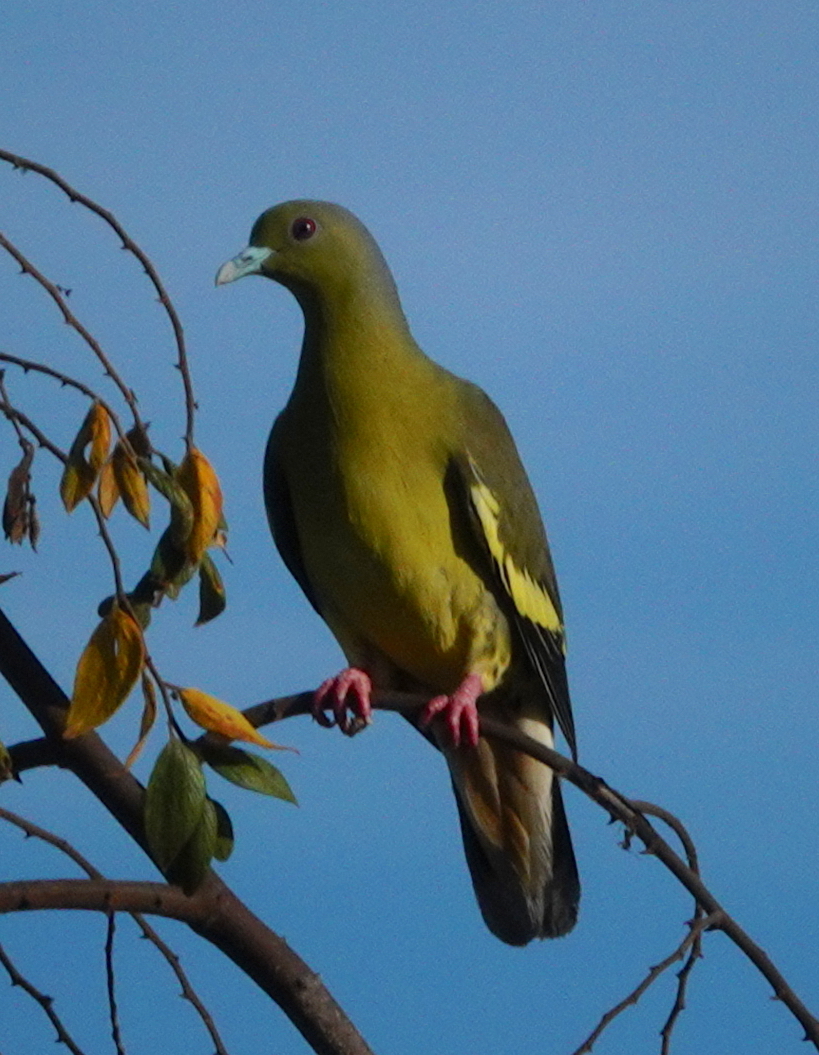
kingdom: Animalia
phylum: Chordata
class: Aves
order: Columbiformes
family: Columbidae
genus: Treron
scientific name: Treron bicinctus
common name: Orange-breasted green pigeon
